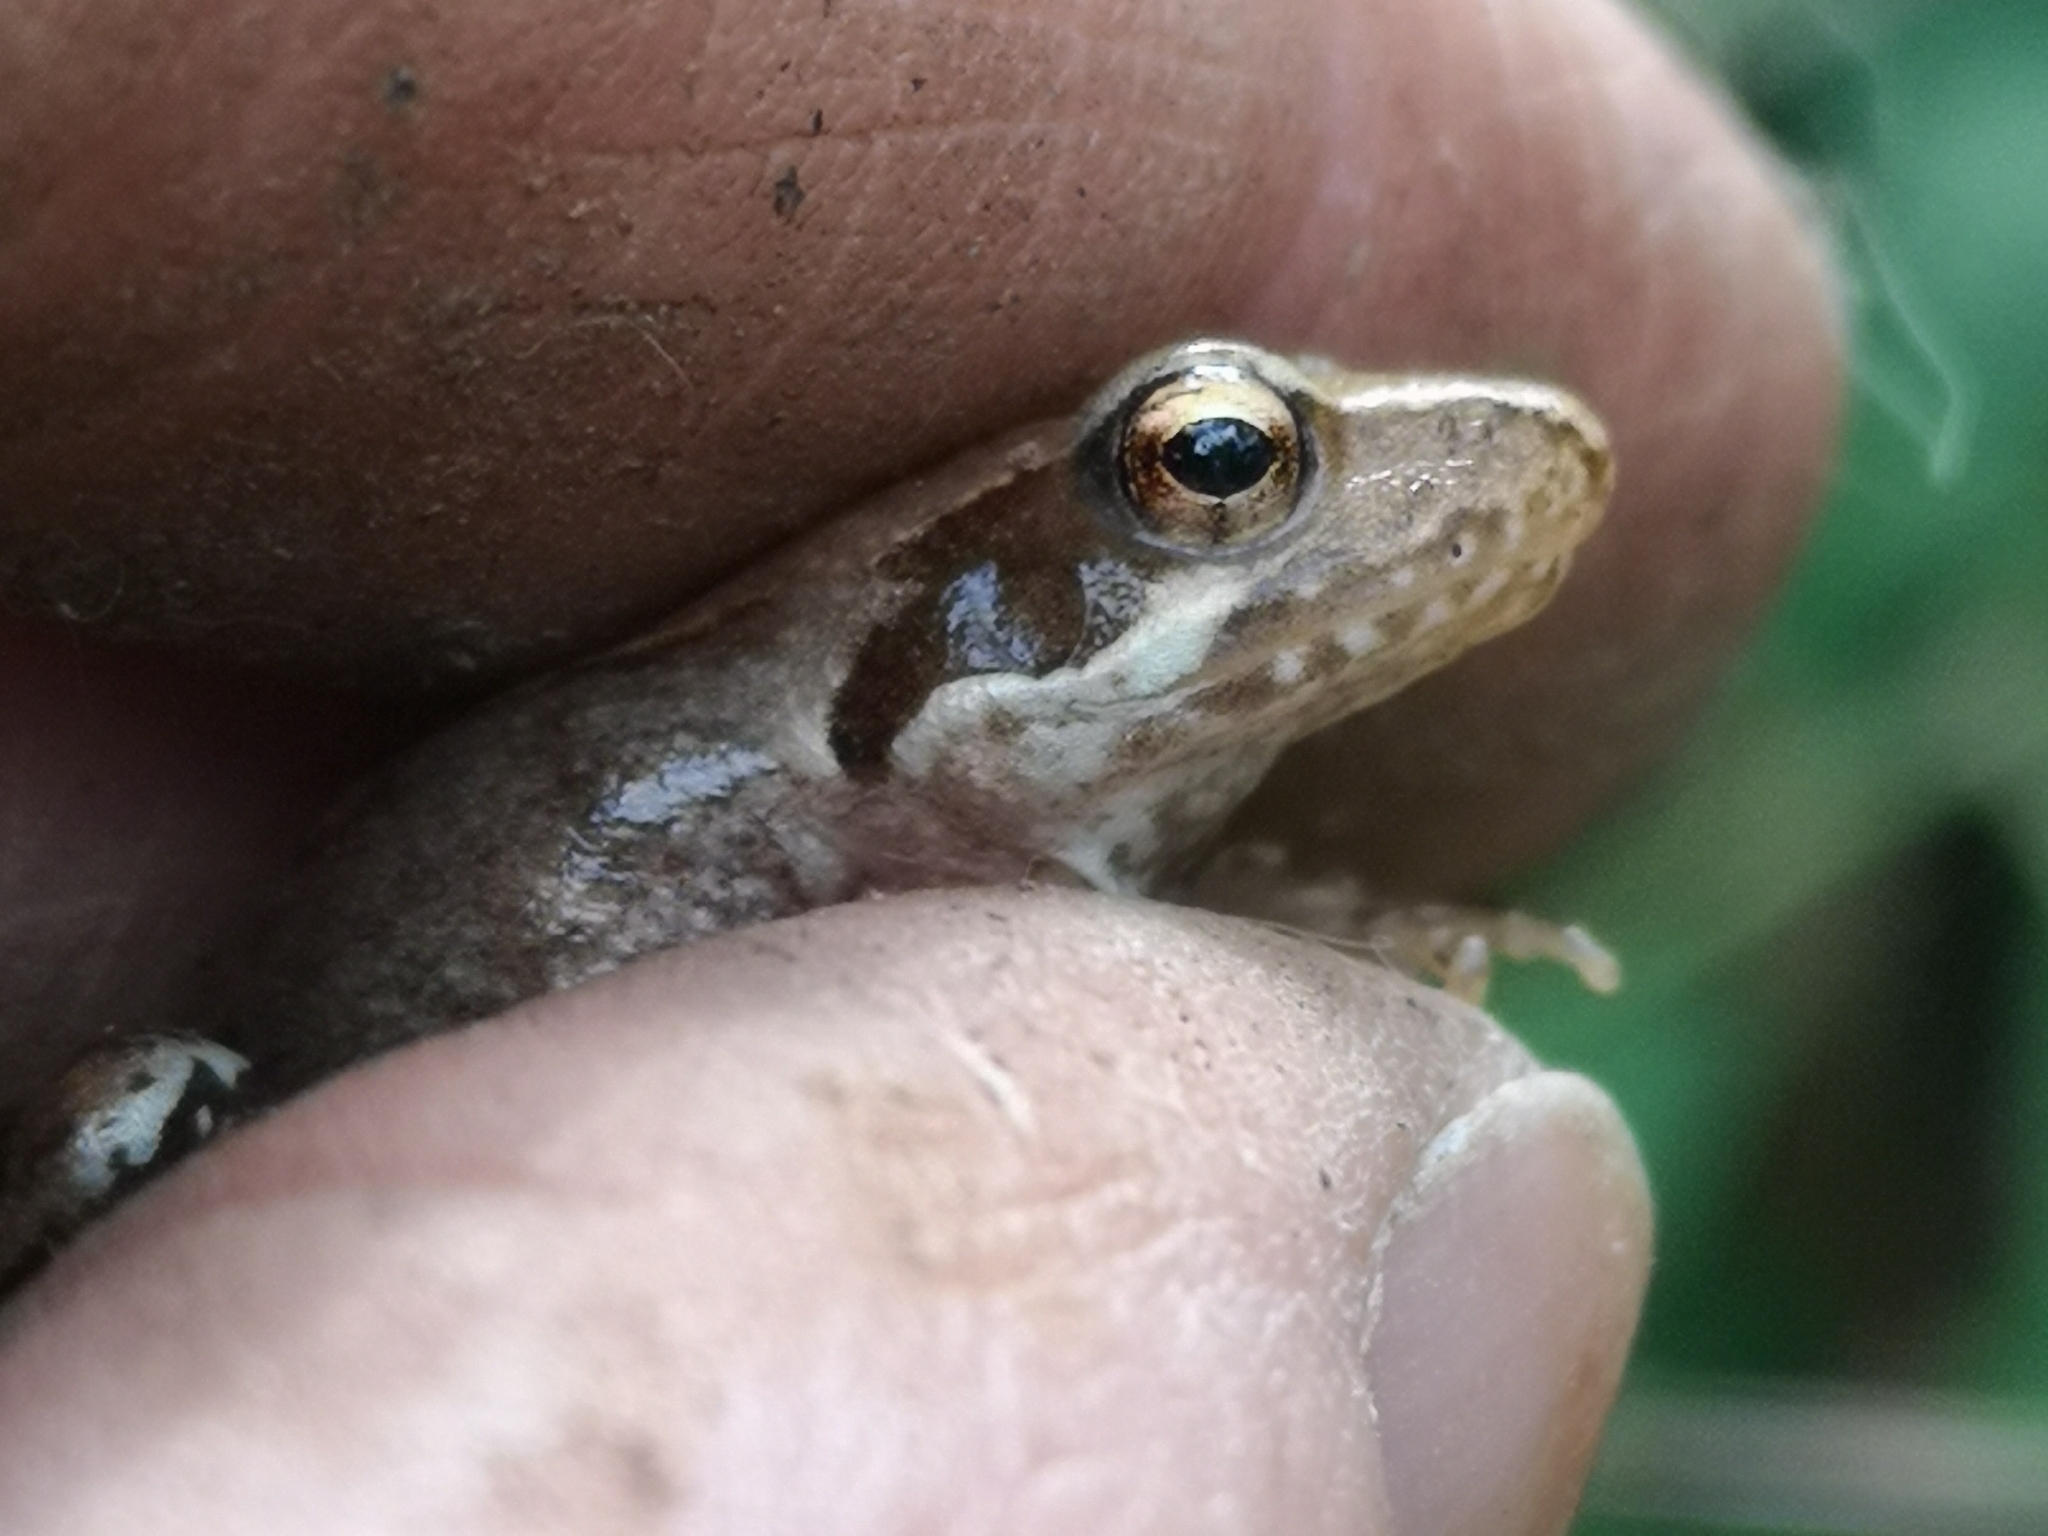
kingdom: Animalia
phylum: Chordata
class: Amphibia
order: Anura
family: Ranidae
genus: Rana
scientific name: Rana latastei
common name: Italian agile frog
